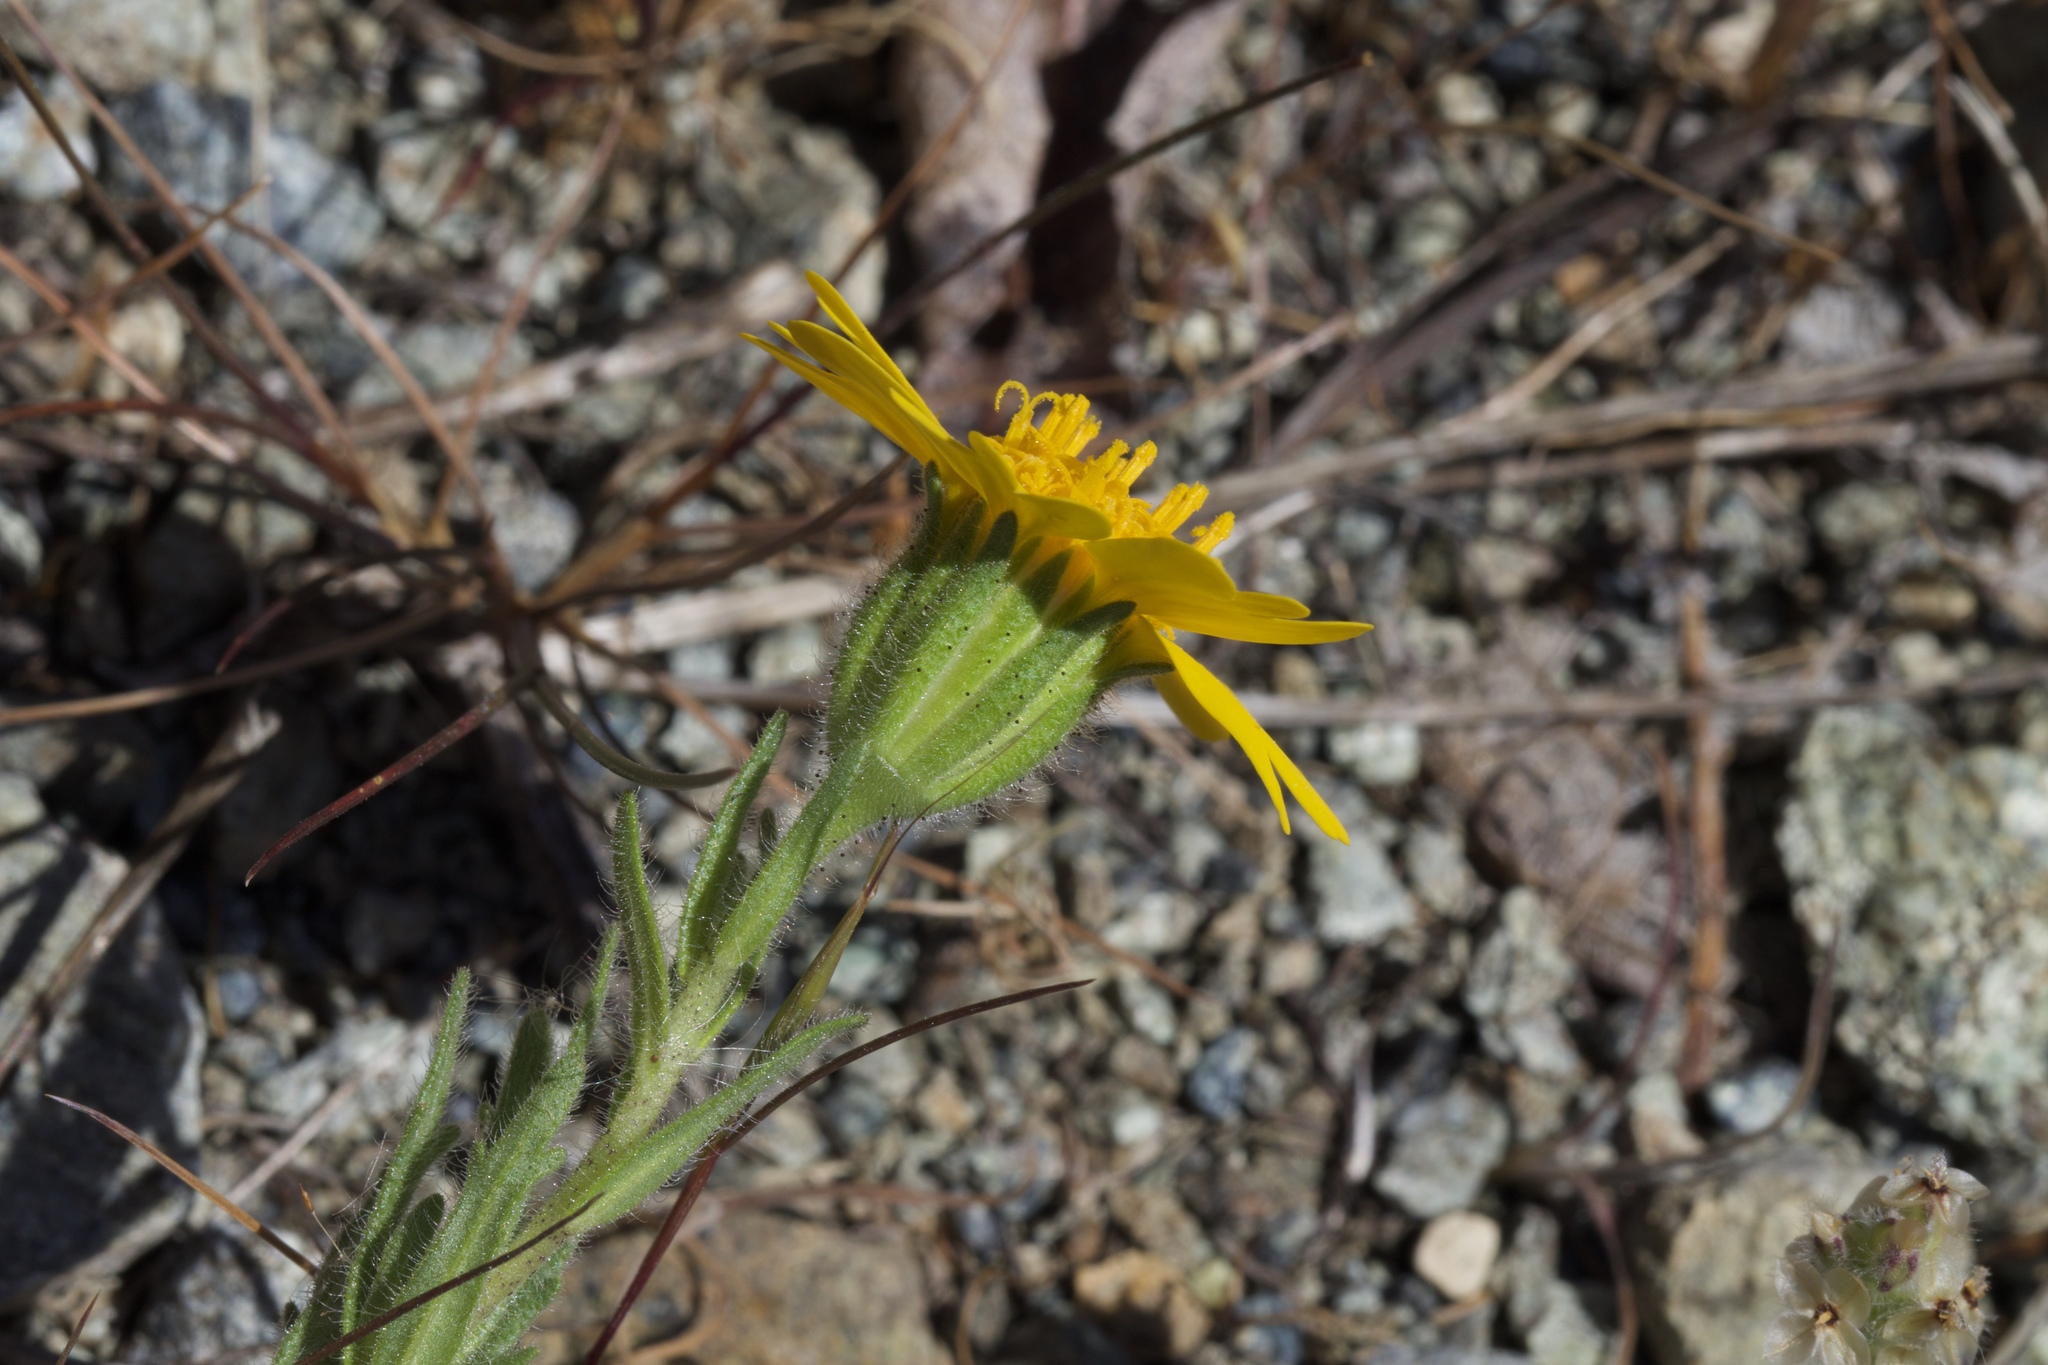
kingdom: Plantae
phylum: Tracheophyta
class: Magnoliopsida
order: Asterales
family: Asteraceae
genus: Layia
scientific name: Layia septentrionalis
